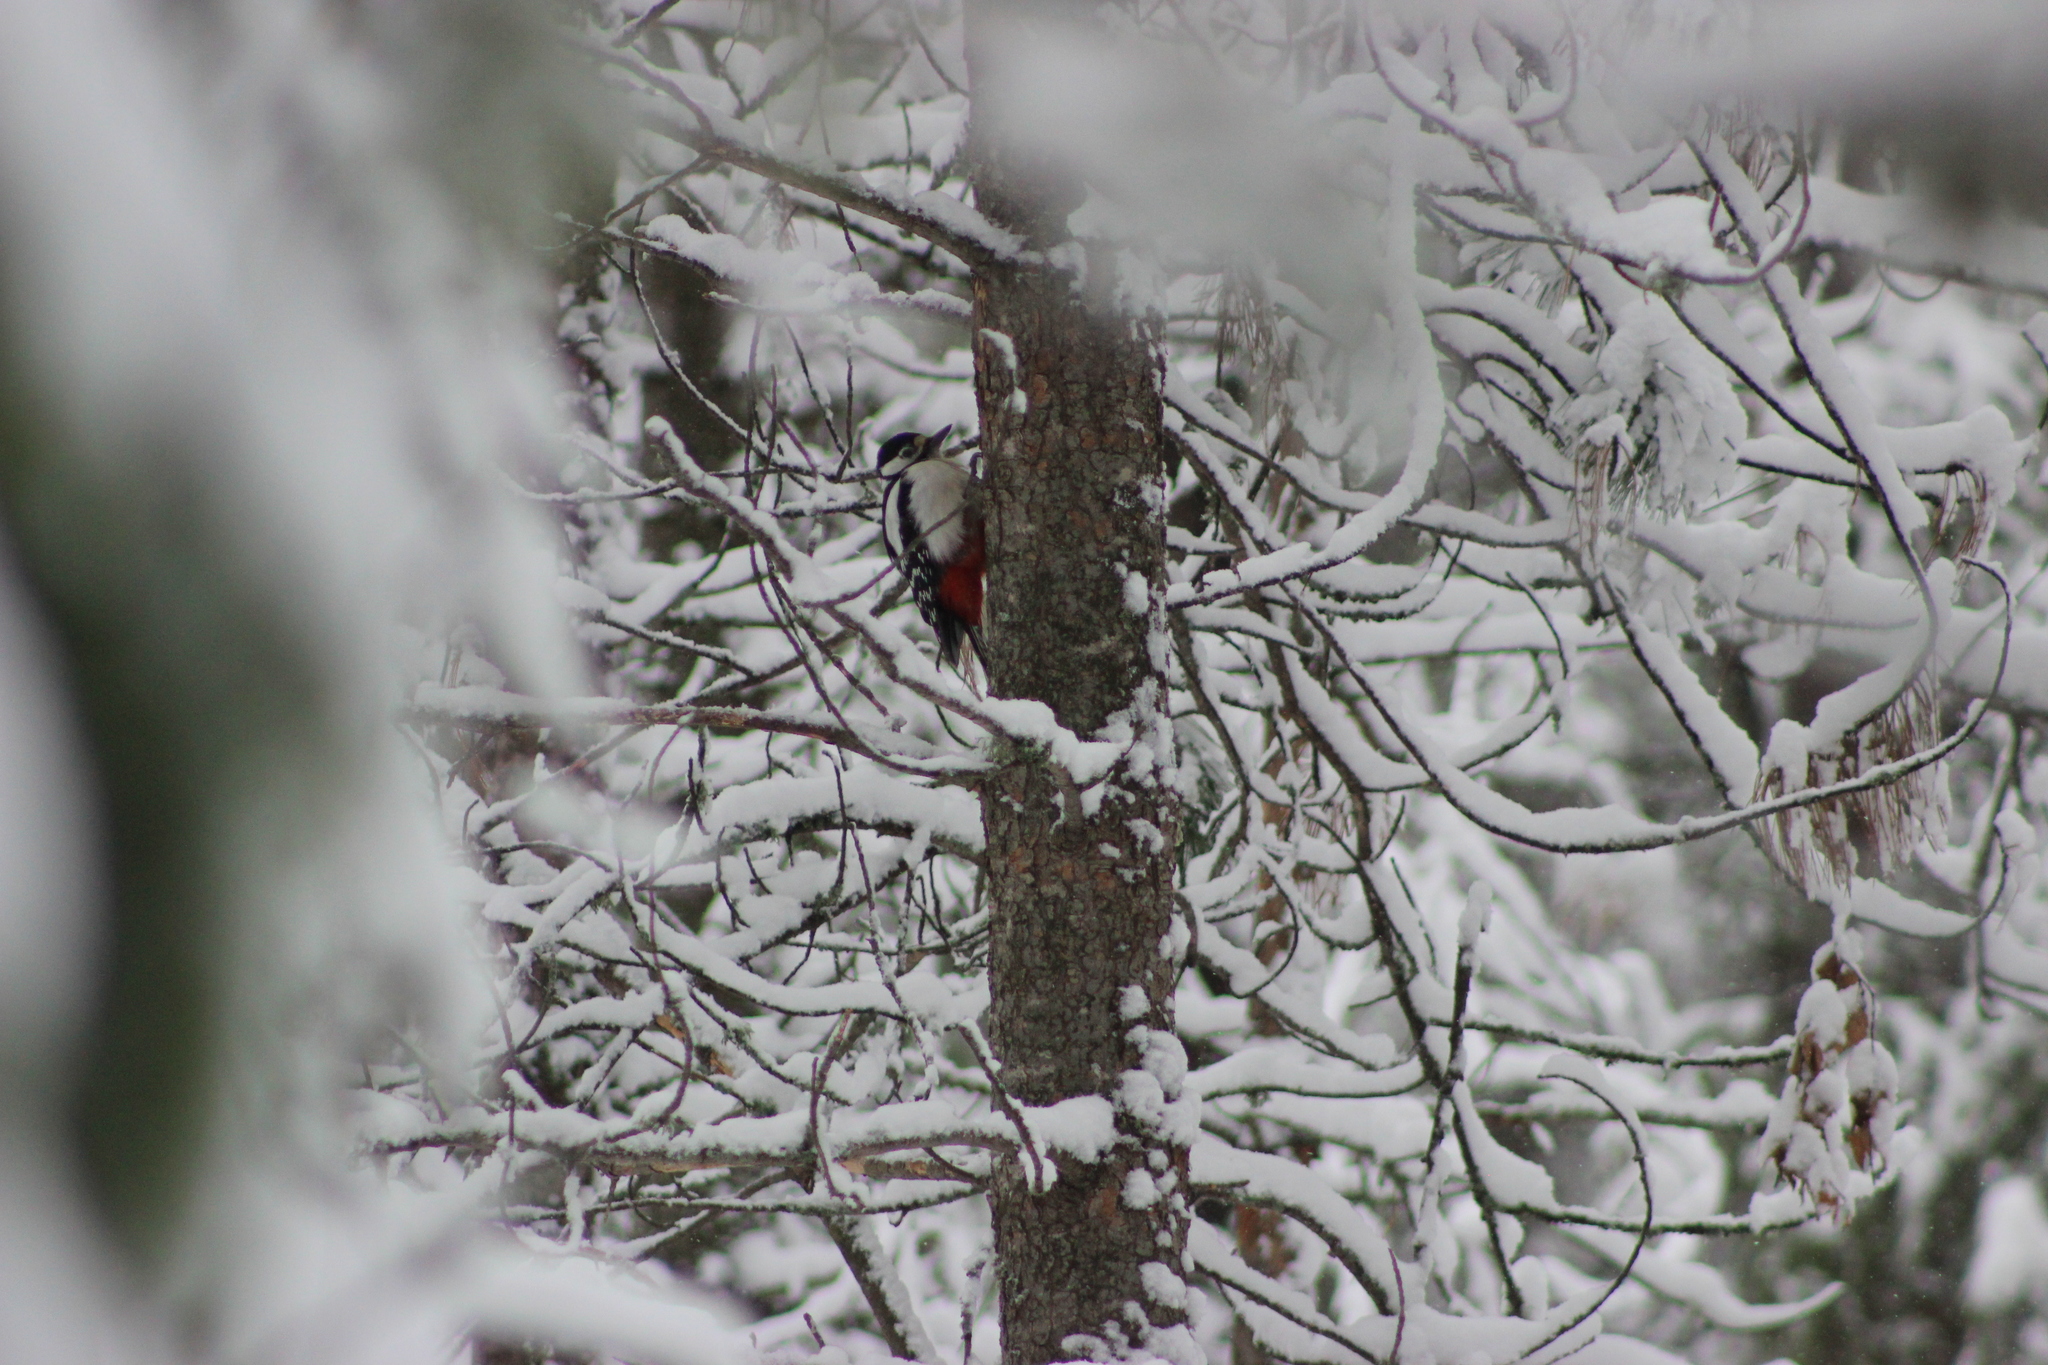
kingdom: Animalia
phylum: Chordata
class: Aves
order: Piciformes
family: Picidae
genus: Dendrocopos
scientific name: Dendrocopos major
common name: Great spotted woodpecker
